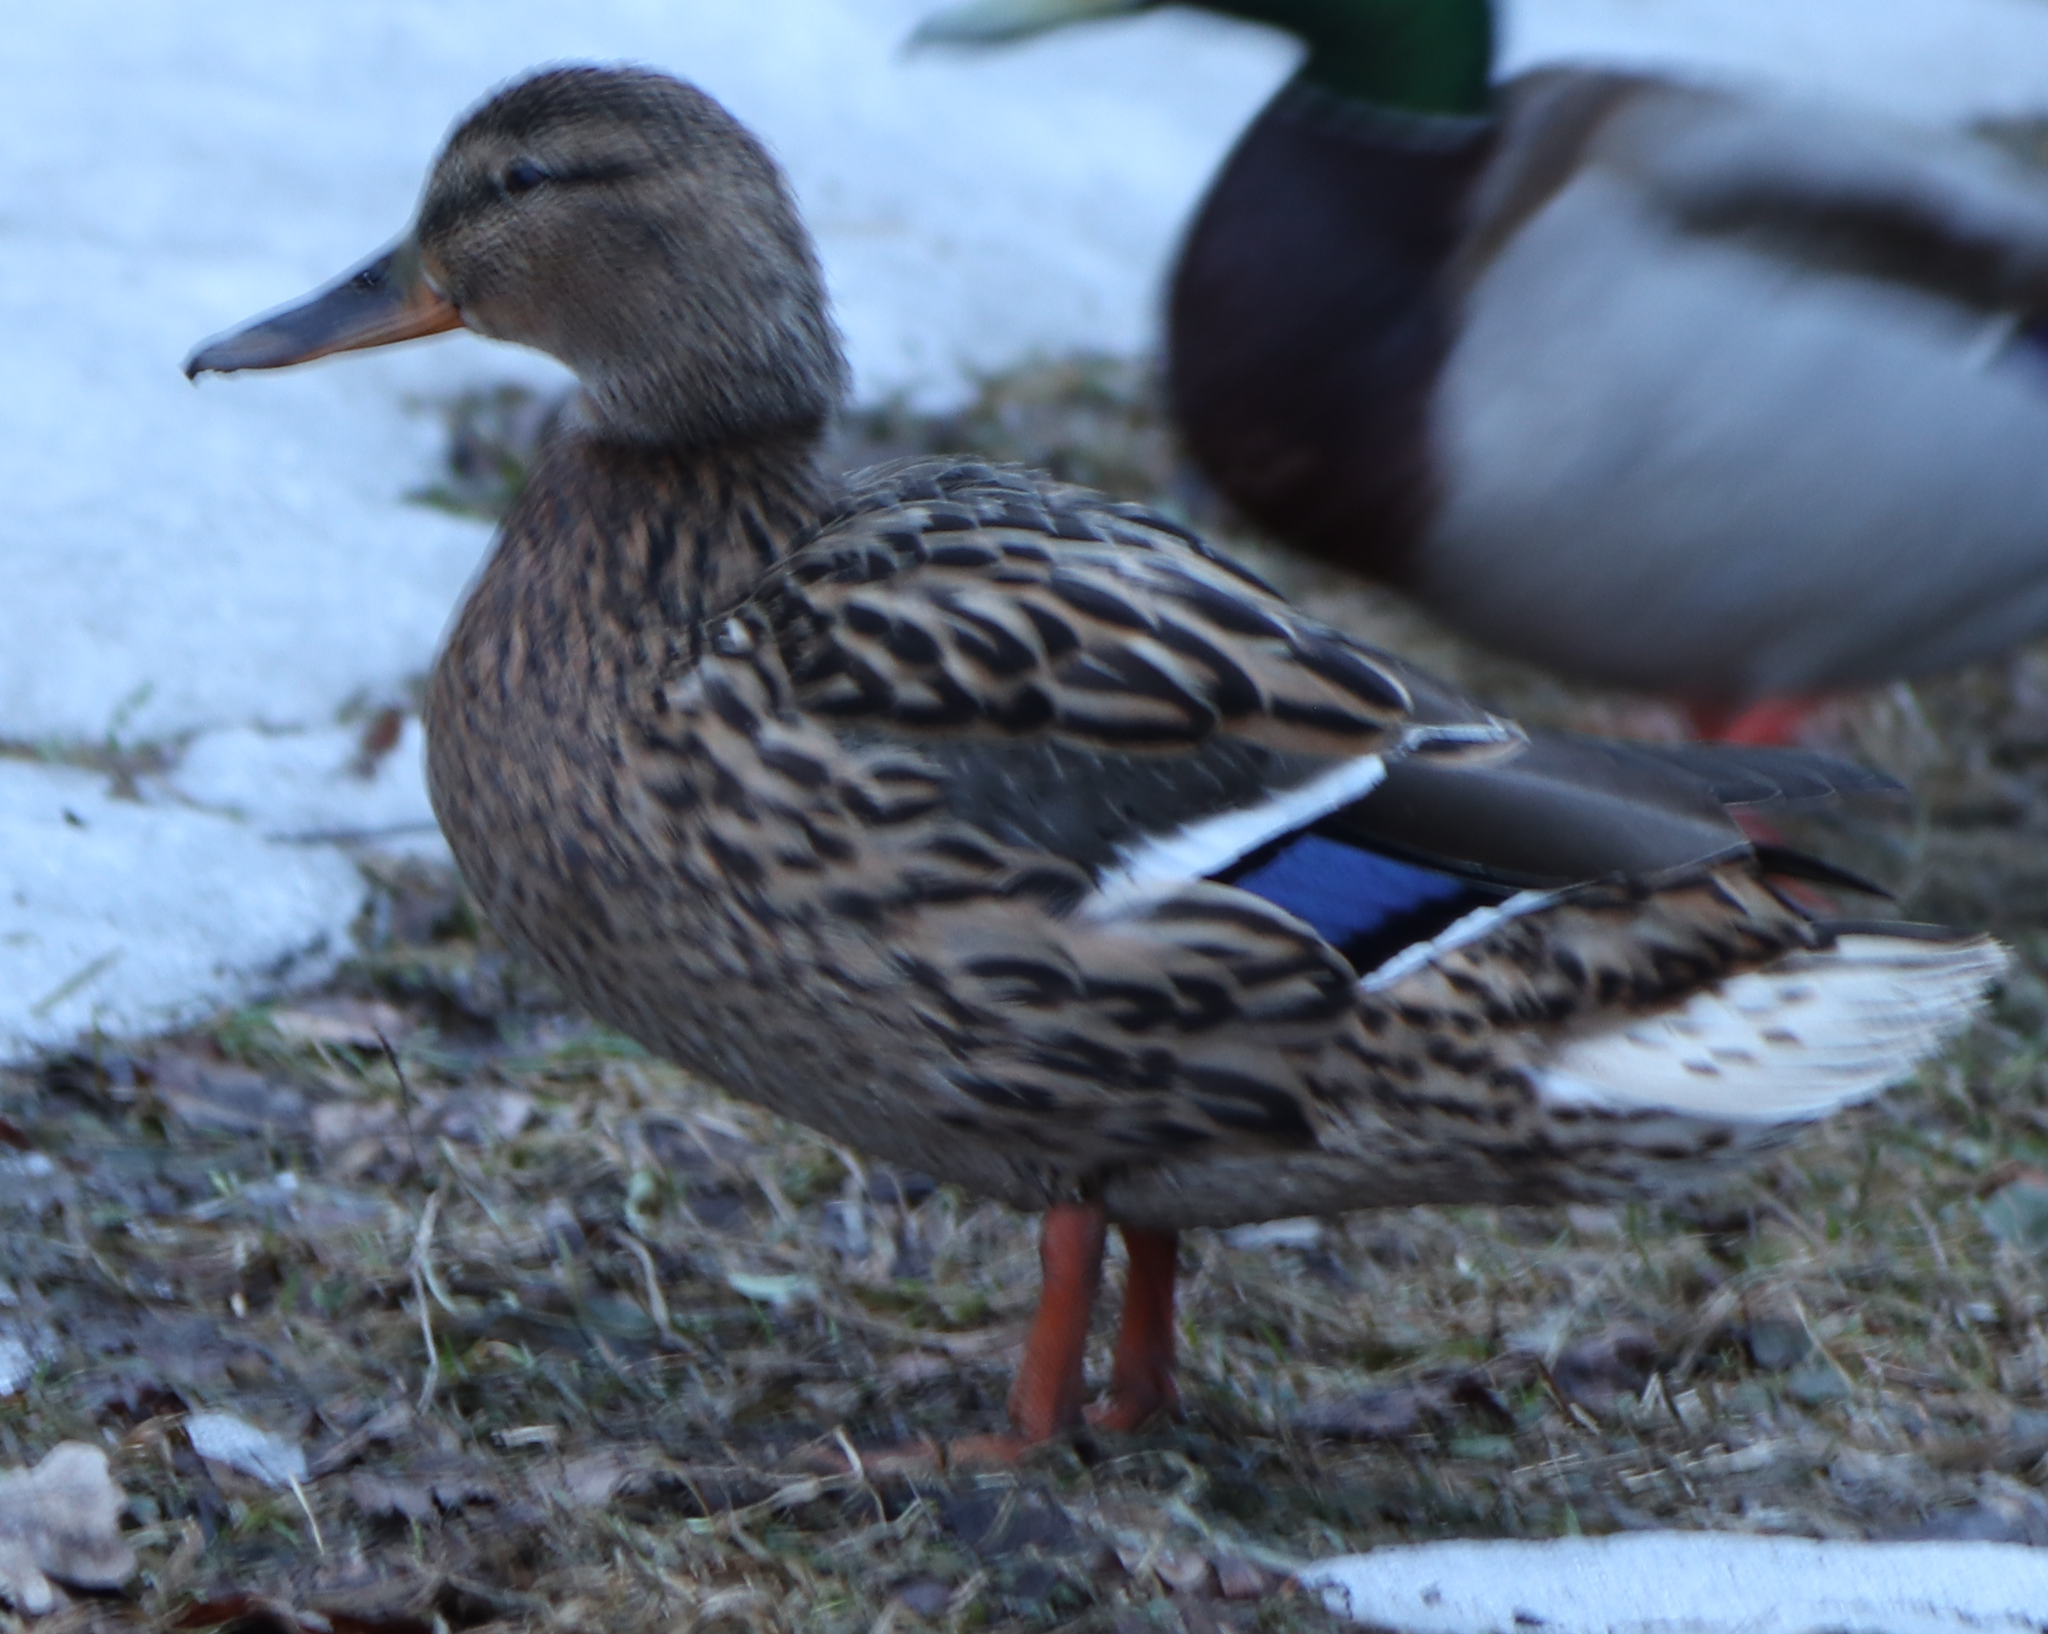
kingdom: Animalia
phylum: Chordata
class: Aves
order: Anseriformes
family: Anatidae
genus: Anas
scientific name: Anas platyrhynchos
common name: Mallard
